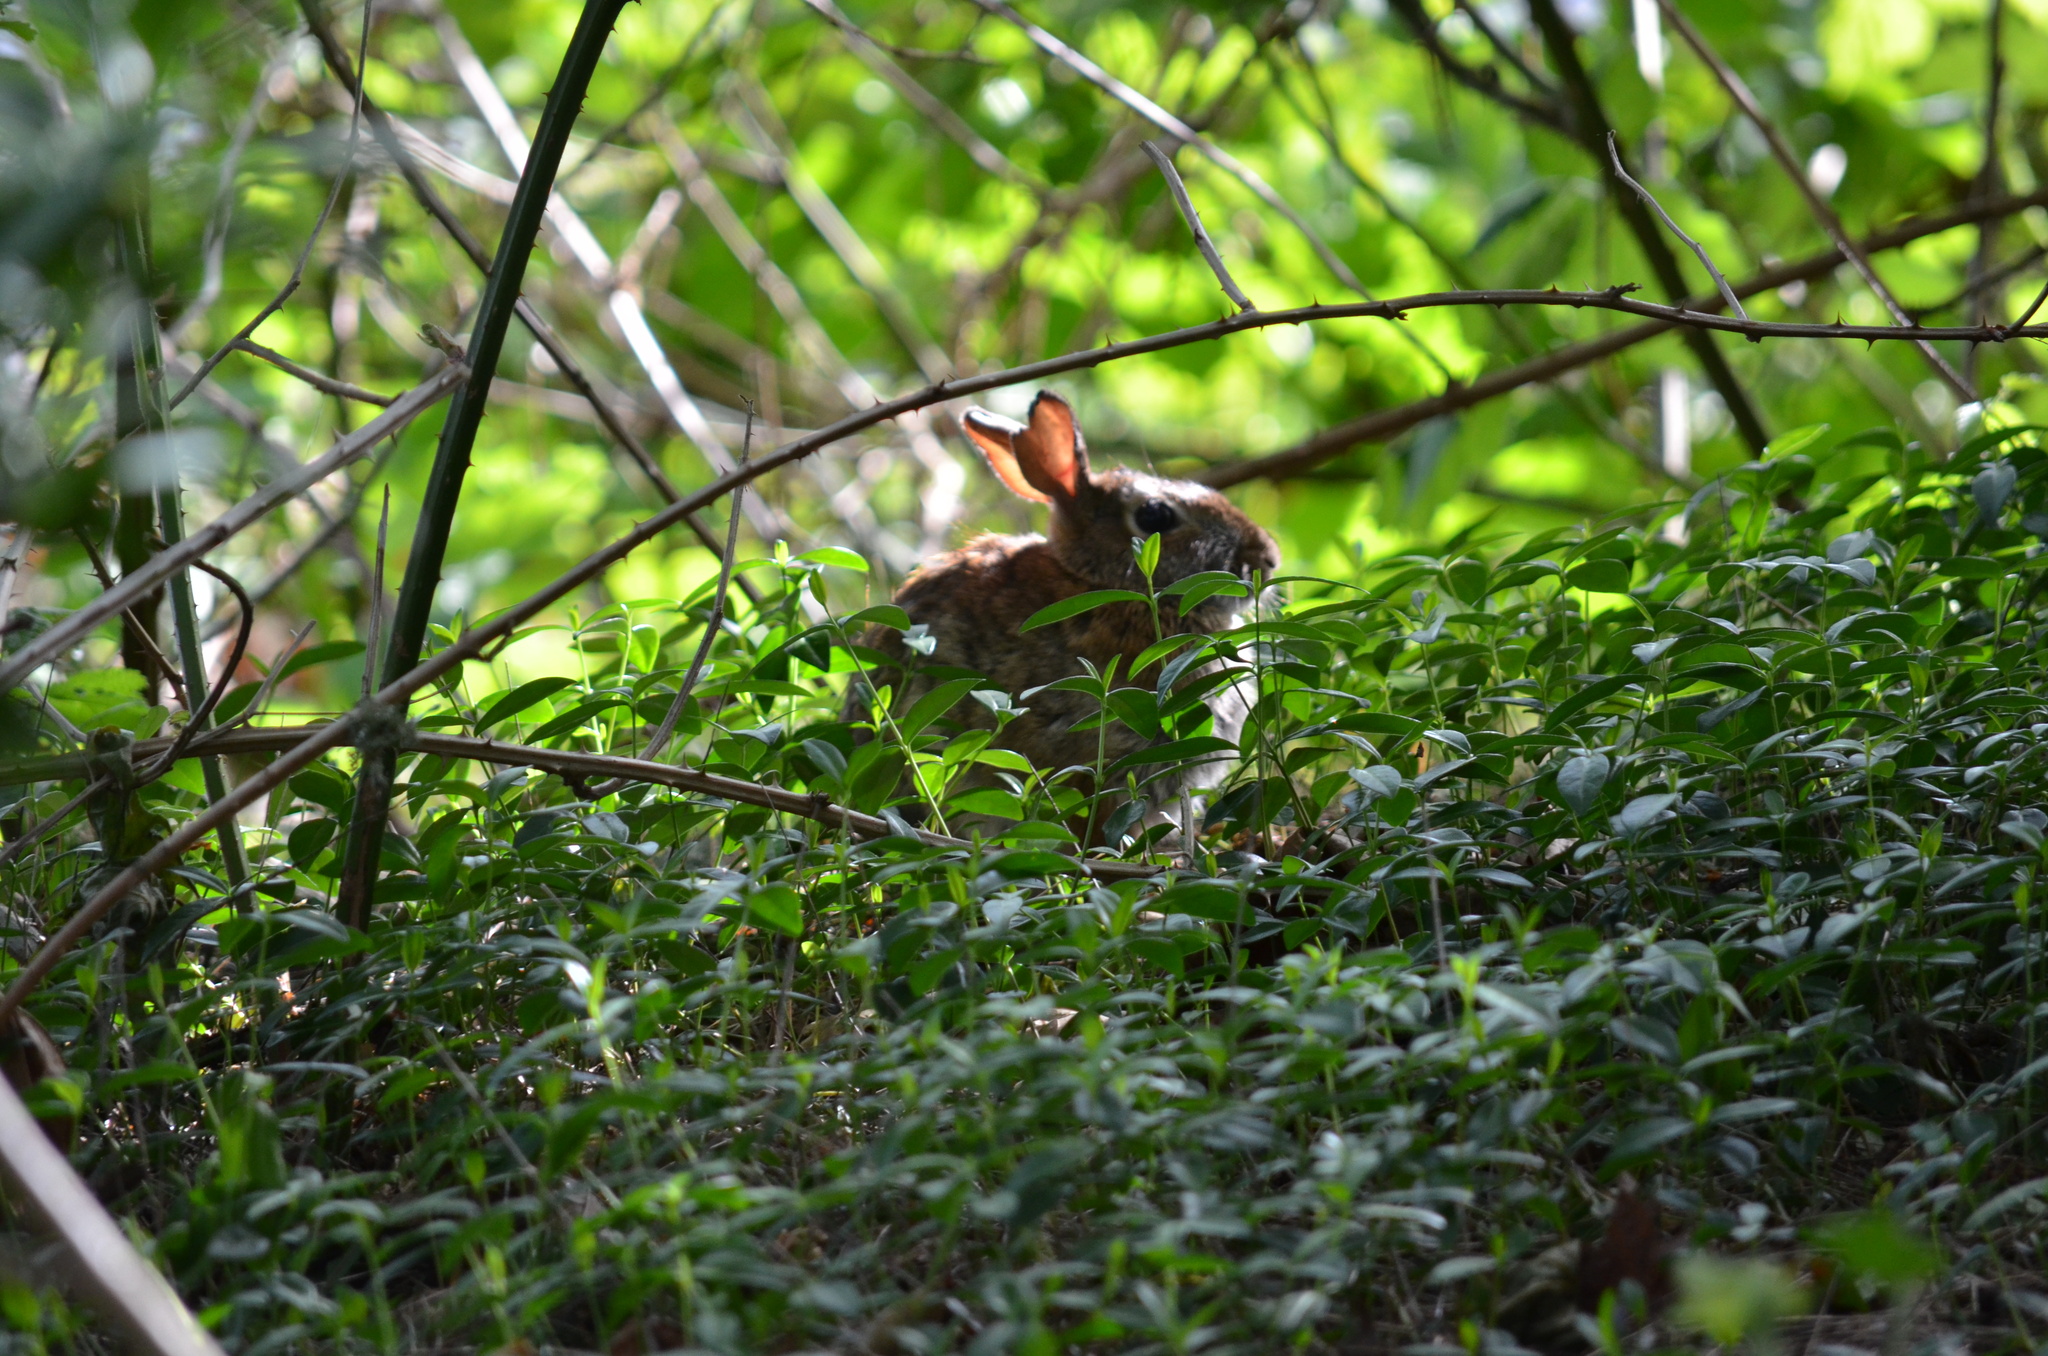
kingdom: Animalia
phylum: Chordata
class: Mammalia
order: Lagomorpha
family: Leporidae
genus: Sylvilagus
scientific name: Sylvilagus floridanus
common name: Eastern cottontail
